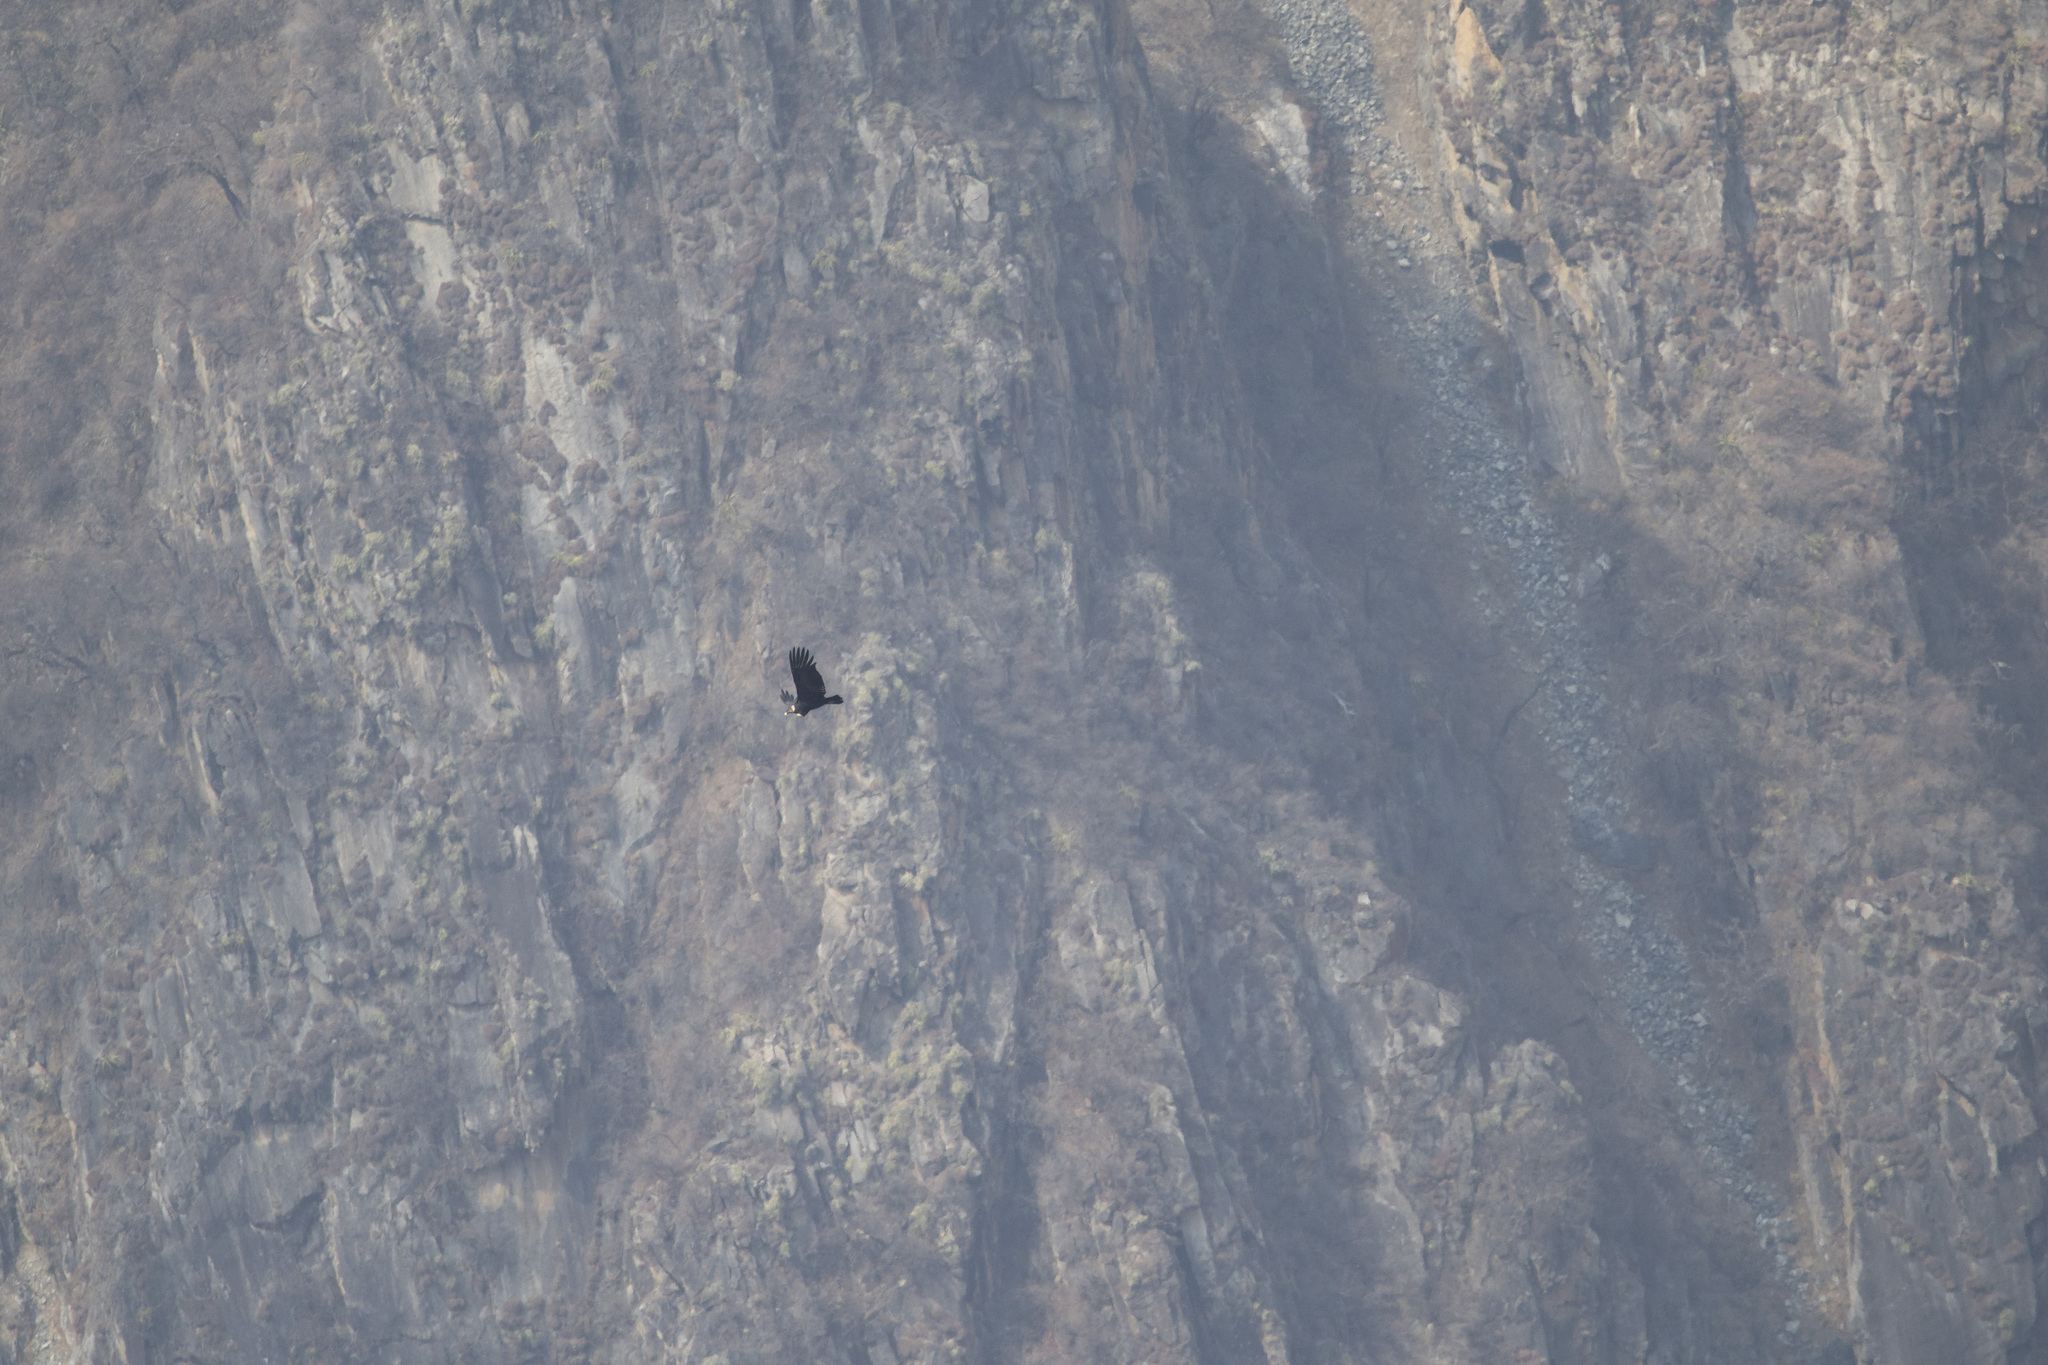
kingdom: Animalia
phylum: Chordata
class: Aves
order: Accipitriformes
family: Cathartidae
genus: Vultur
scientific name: Vultur gryphus
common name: Andean condor
